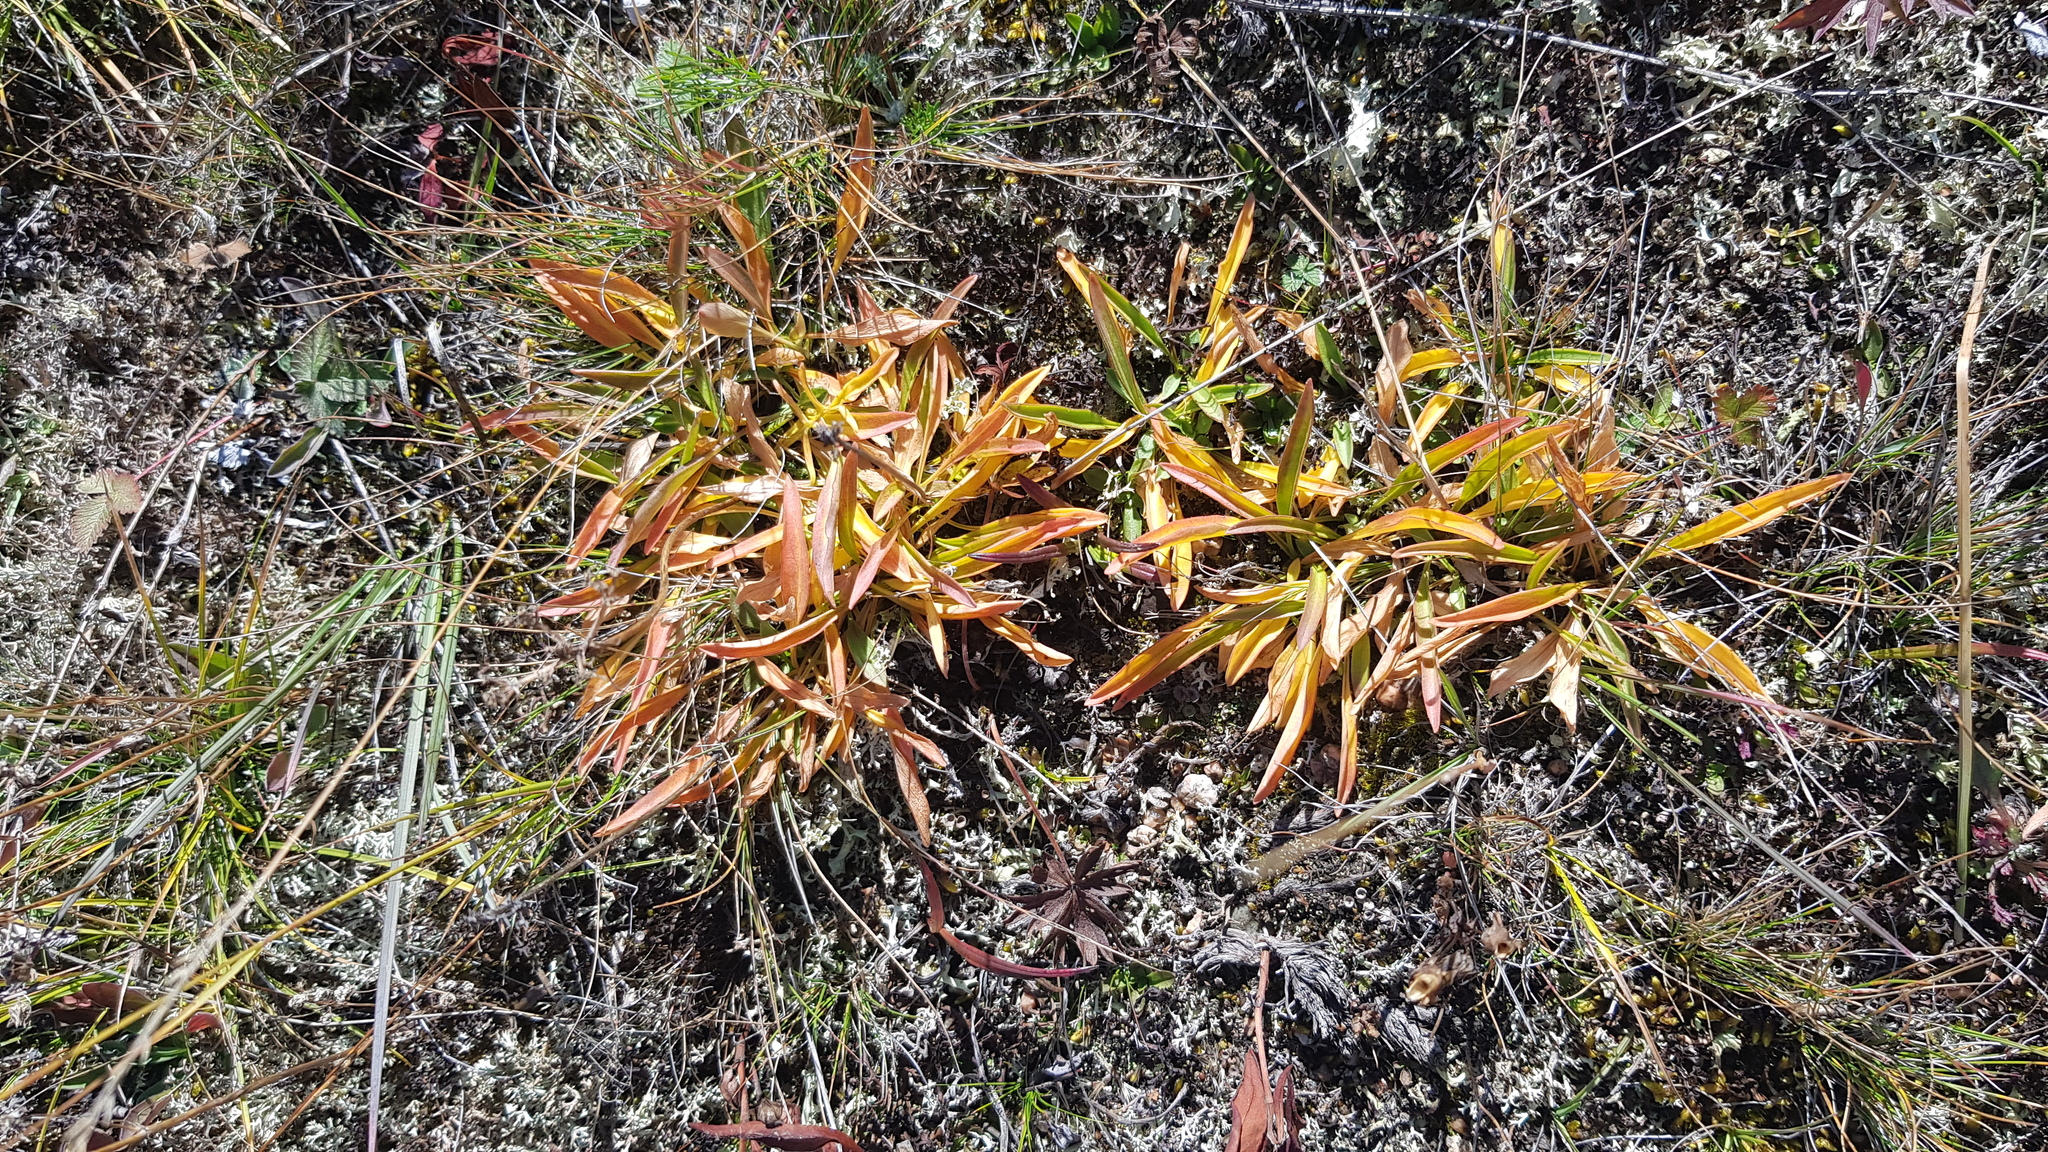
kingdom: Plantae
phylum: Tracheophyta
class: Magnoliopsida
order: Dipsacales
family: Caprifoliaceae
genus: Patrinia
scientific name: Patrinia sibirica
